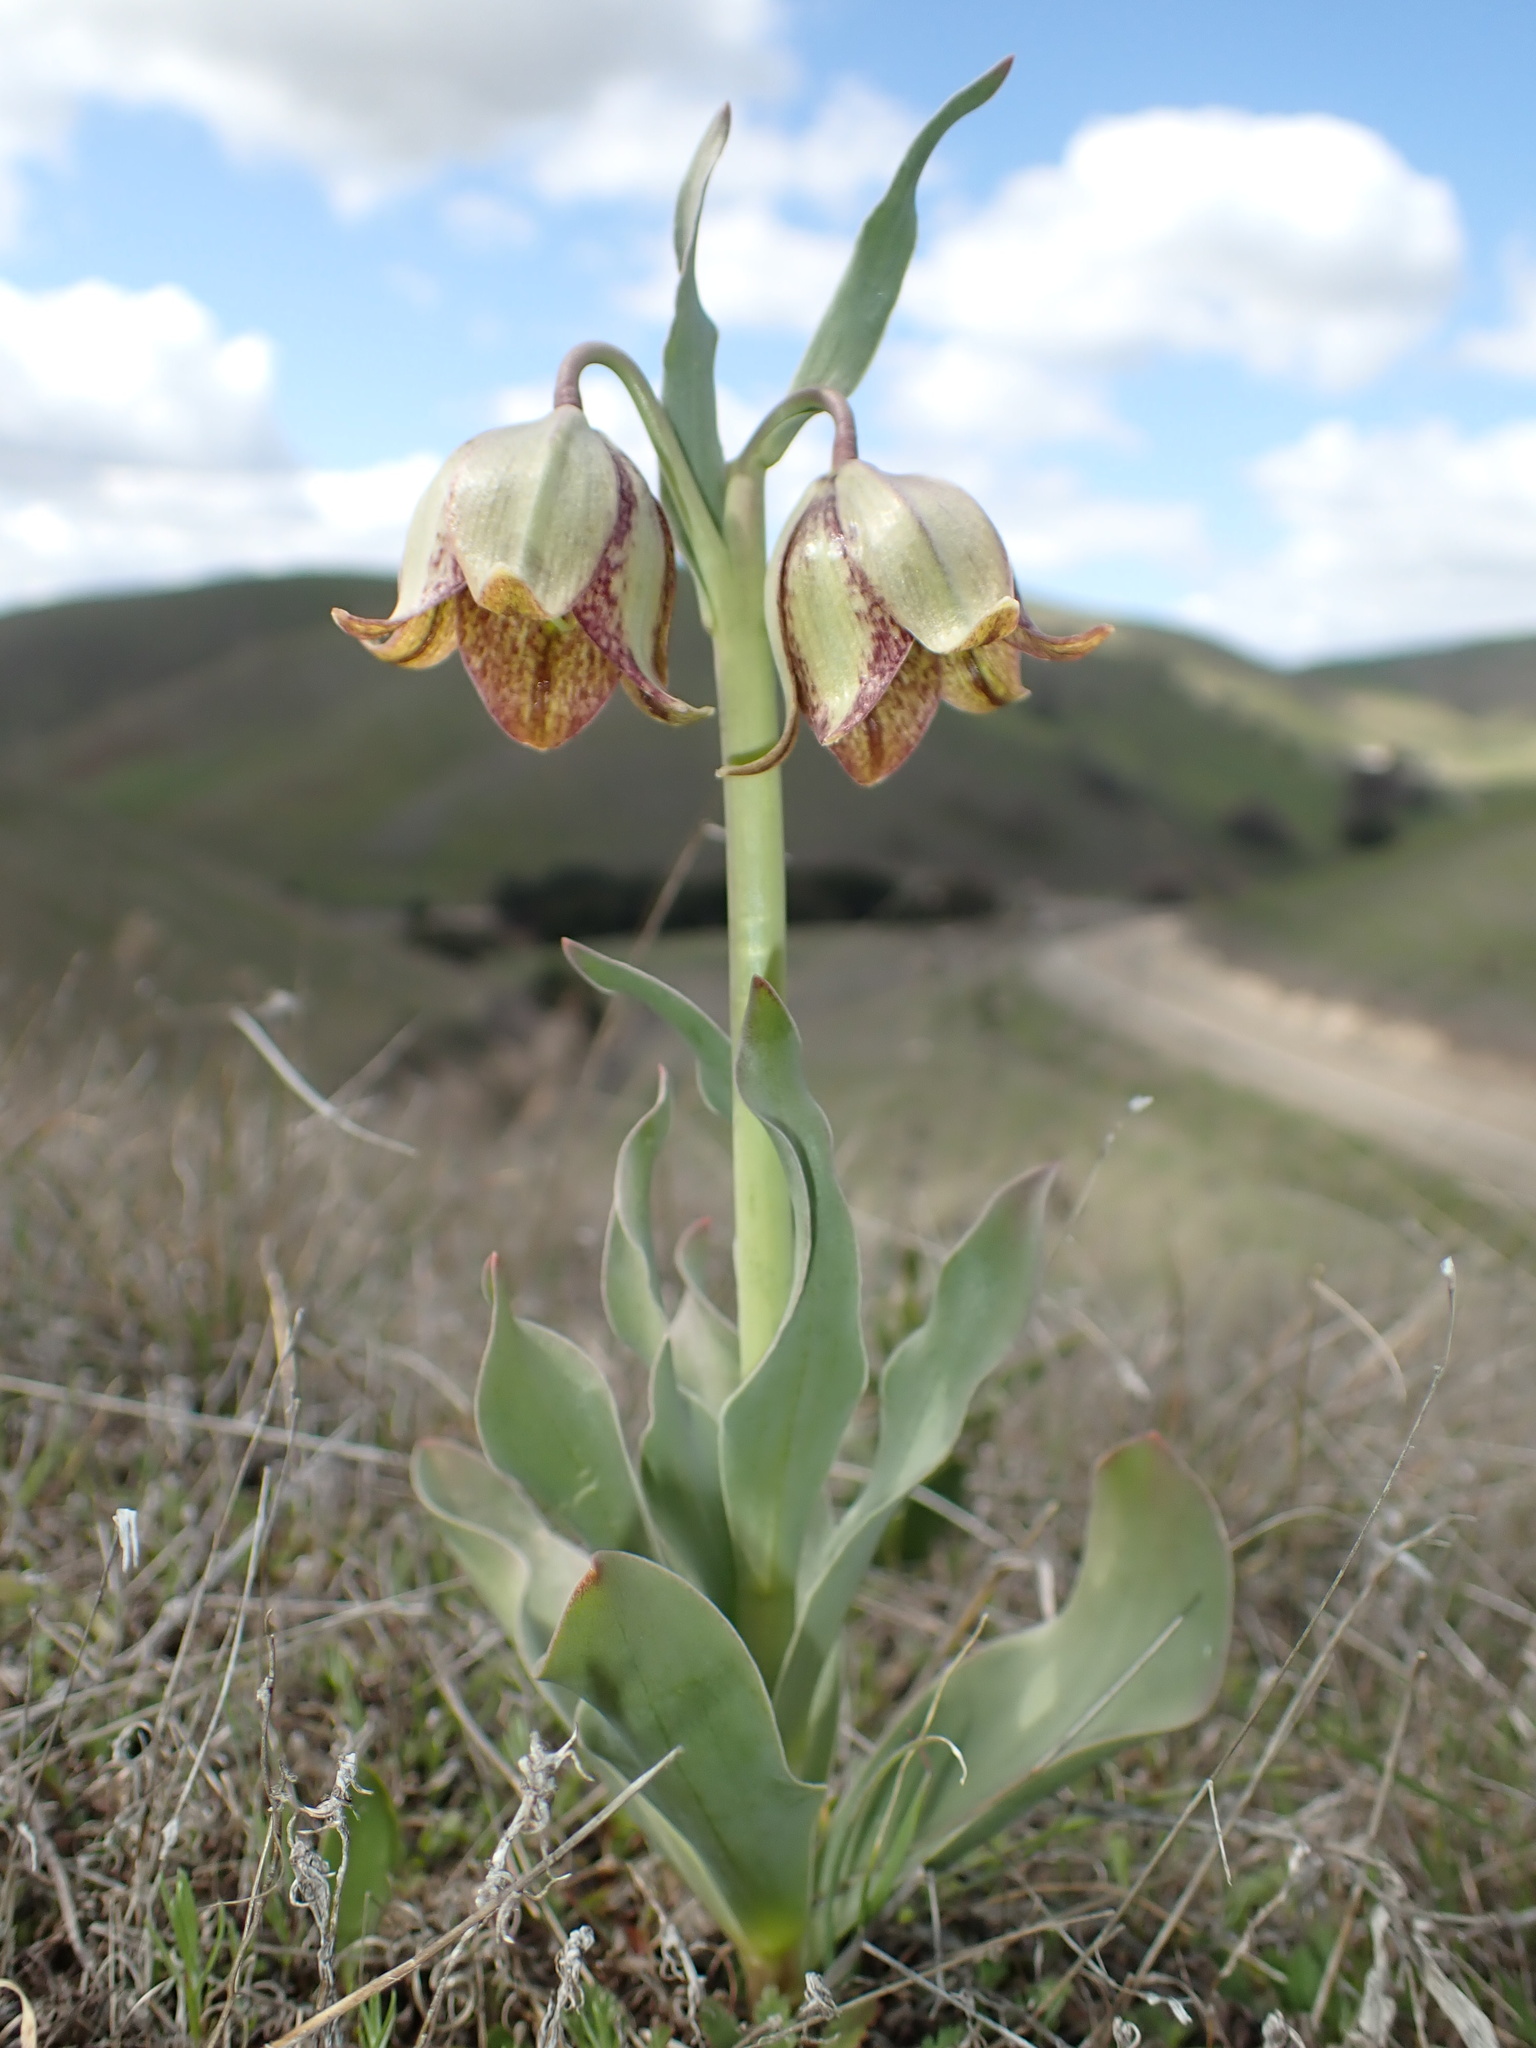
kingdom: Plantae
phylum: Tracheophyta
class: Liliopsida
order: Liliales
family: Liliaceae
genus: Fritillaria
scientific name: Fritillaria agrestis
